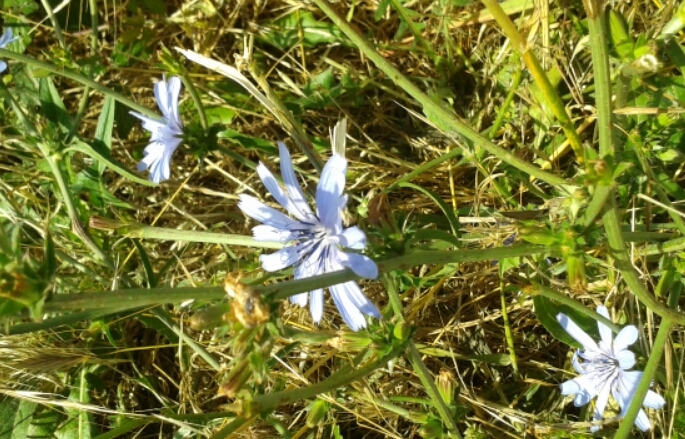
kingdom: Plantae
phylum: Tracheophyta
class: Magnoliopsida
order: Asterales
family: Asteraceae
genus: Cichorium
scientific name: Cichorium intybus
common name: Chicory
